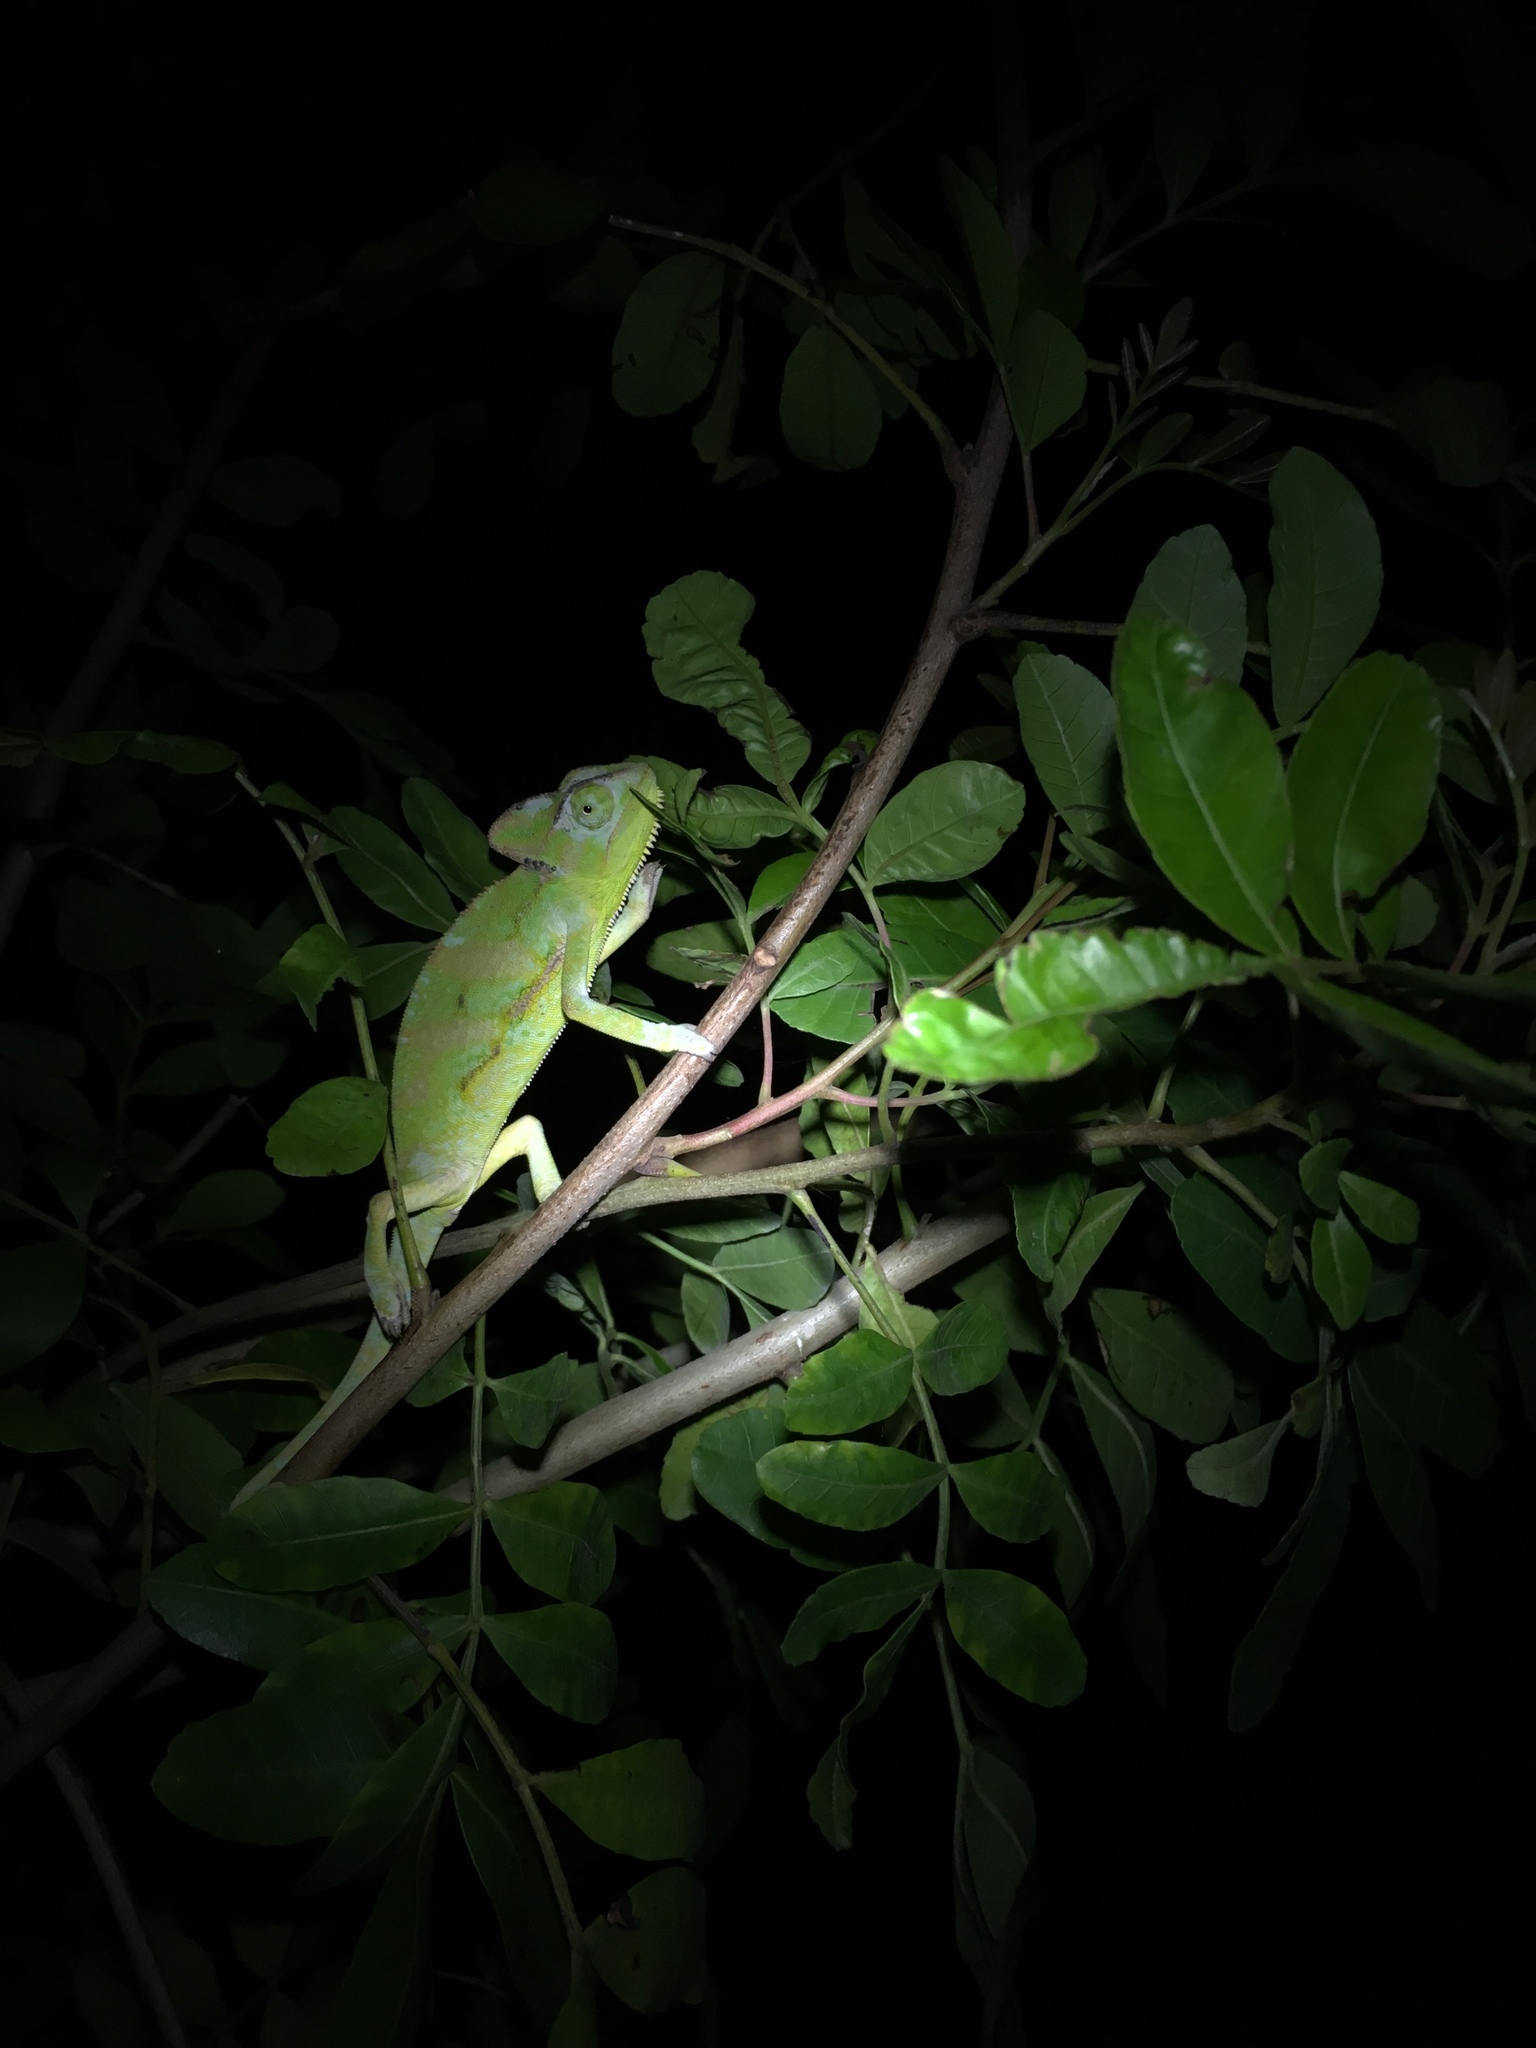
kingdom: Animalia
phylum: Chordata
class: Squamata
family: Chamaeleonidae
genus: Chamaeleo
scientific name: Chamaeleo calyptratus
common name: Veiled chameleon
